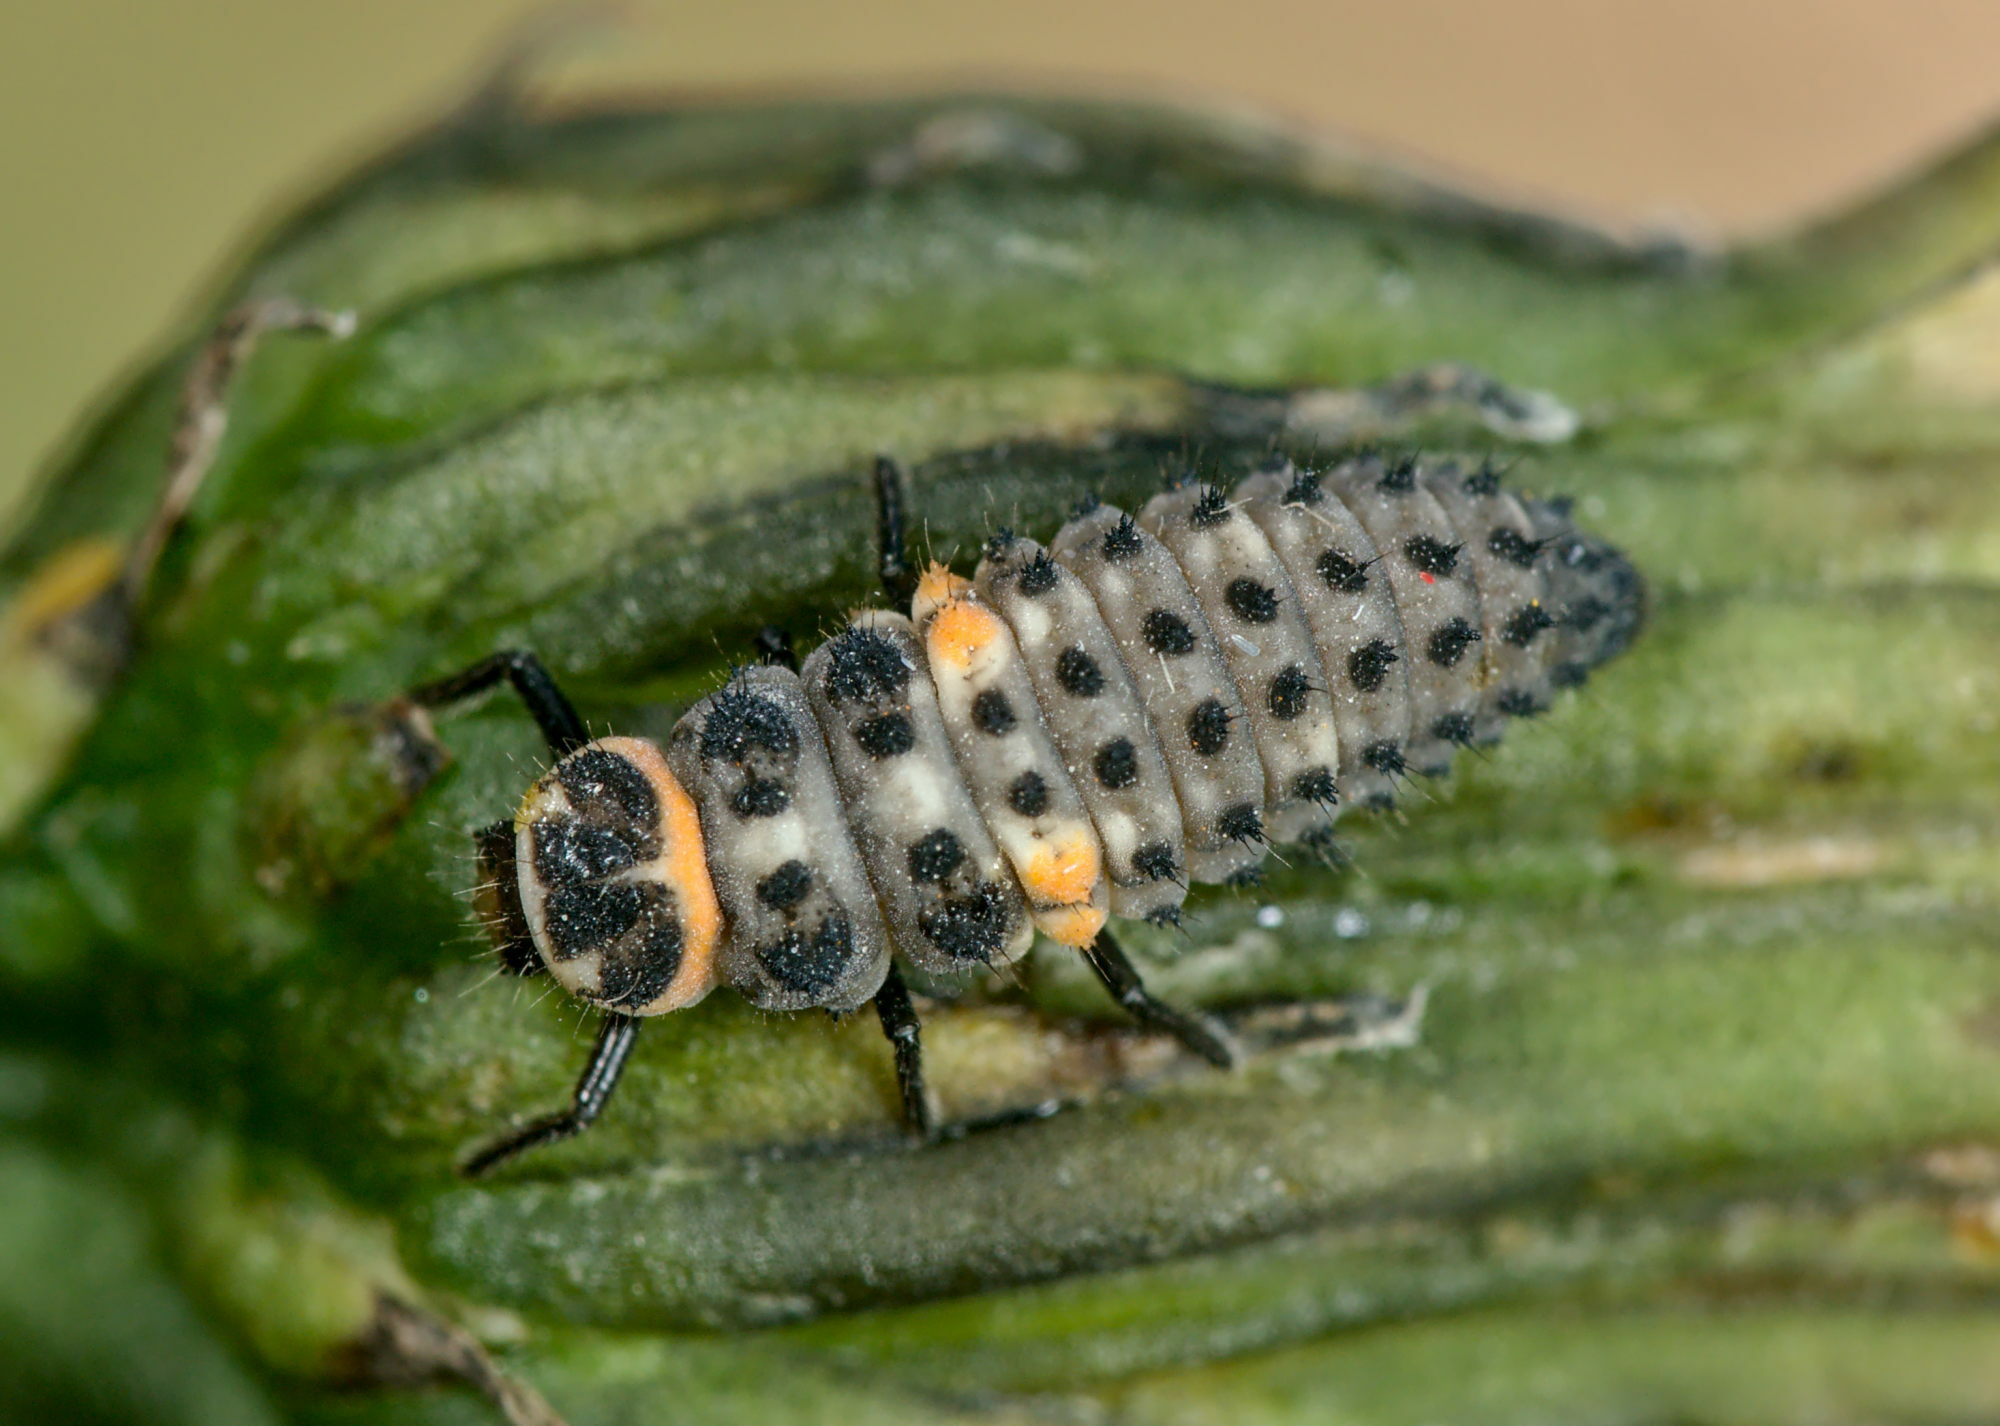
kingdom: Animalia
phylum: Arthropoda
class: Insecta
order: Coleoptera
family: Coccinellidae
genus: Hippodamia
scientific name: Hippodamia variegata
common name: Ladybird beetle
